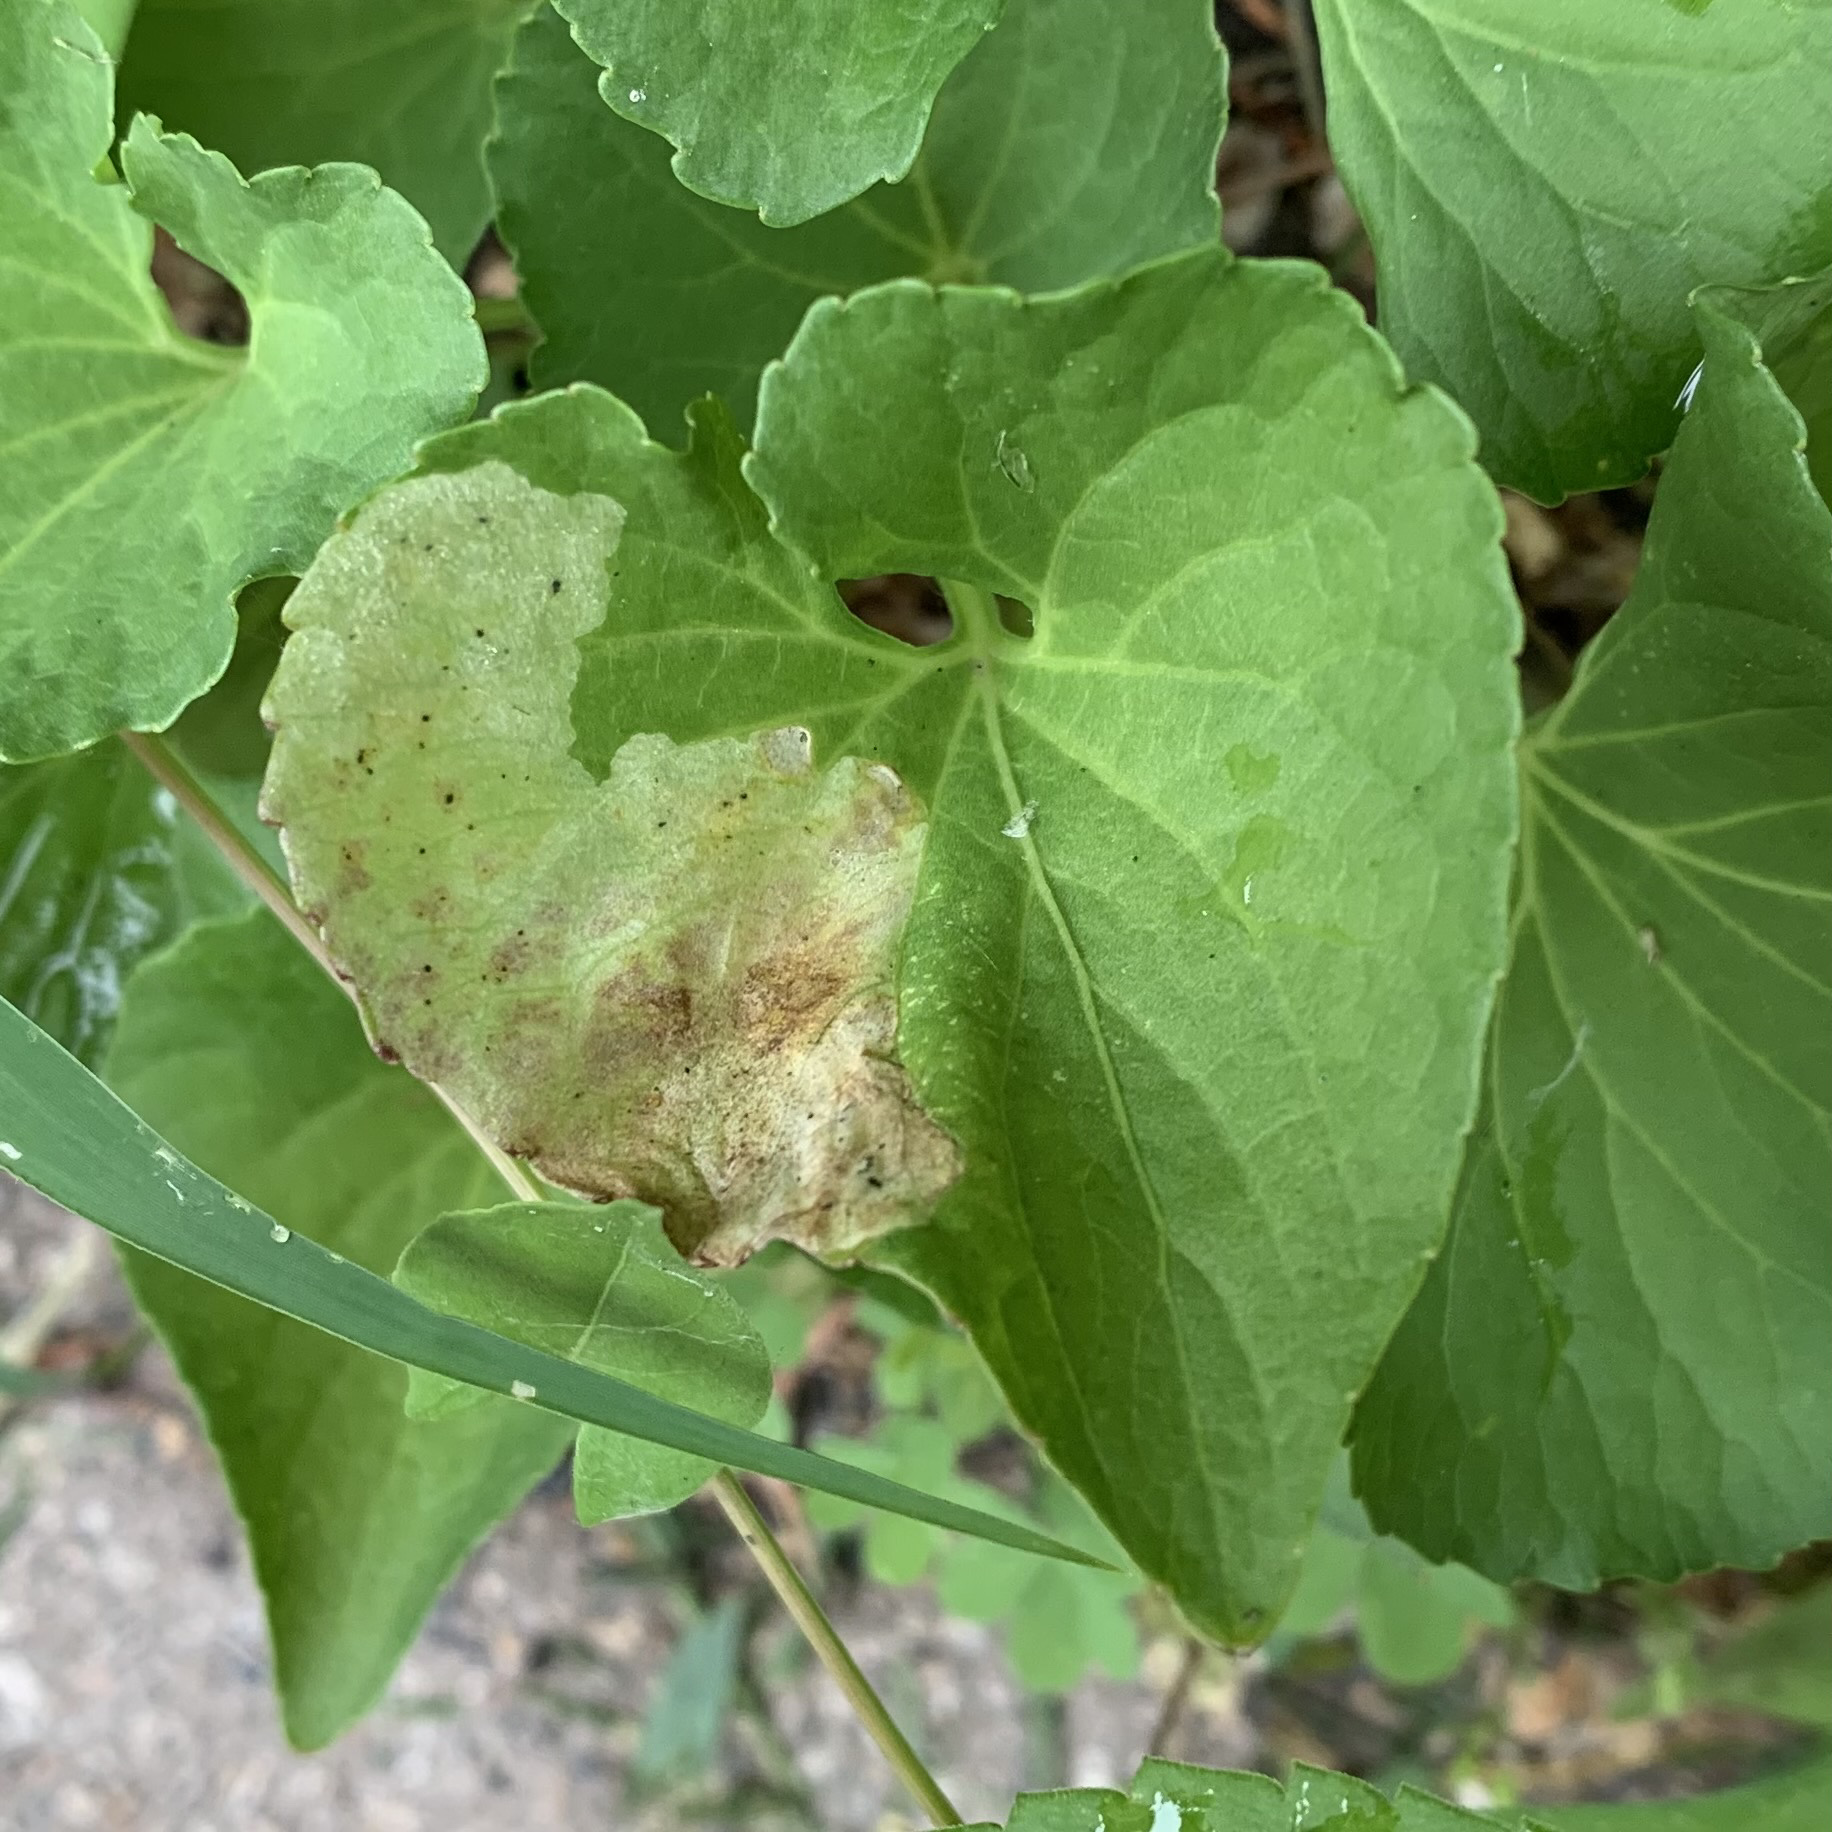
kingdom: Animalia
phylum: Arthropoda
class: Insecta
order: Diptera
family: Agromyzidae
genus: Liriomyza
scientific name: Liriomyza violivora
